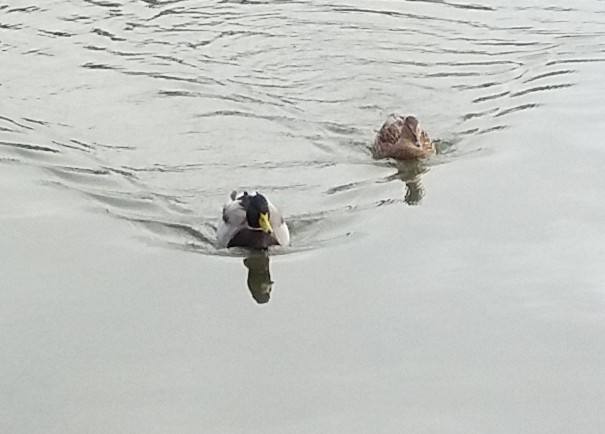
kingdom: Animalia
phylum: Chordata
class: Aves
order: Anseriformes
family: Anatidae
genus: Anas
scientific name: Anas platyrhynchos
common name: Mallard
